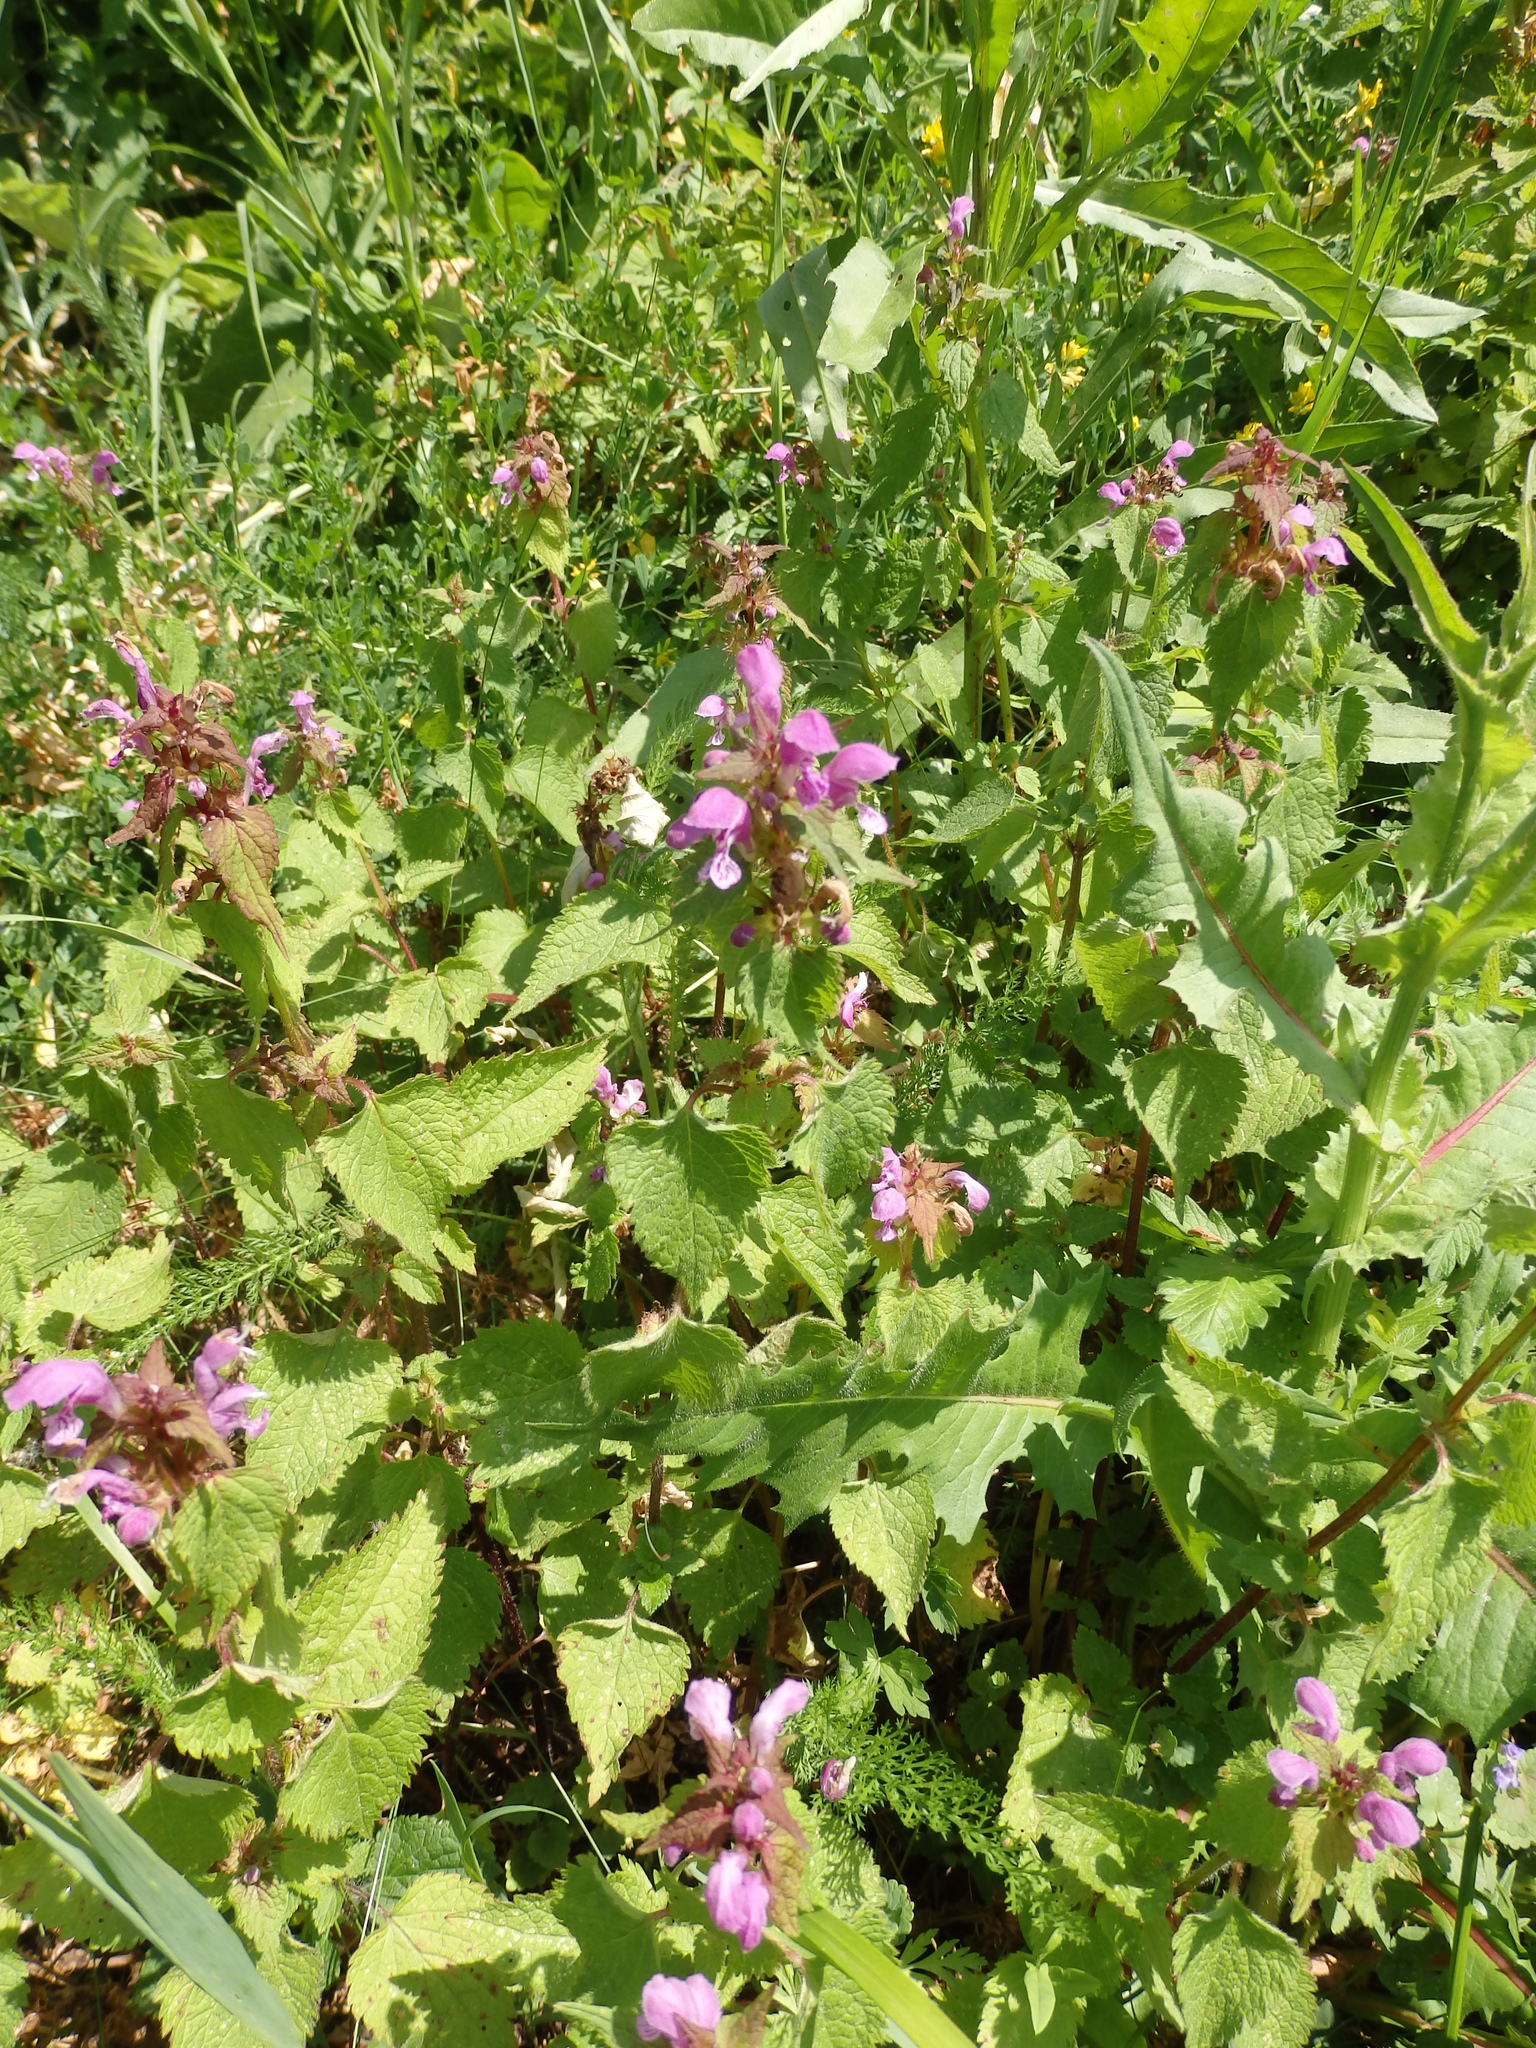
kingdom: Plantae
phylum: Tracheophyta
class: Magnoliopsida
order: Lamiales
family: Lamiaceae
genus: Lamium
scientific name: Lamium maculatum
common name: Spotted dead-nettle
